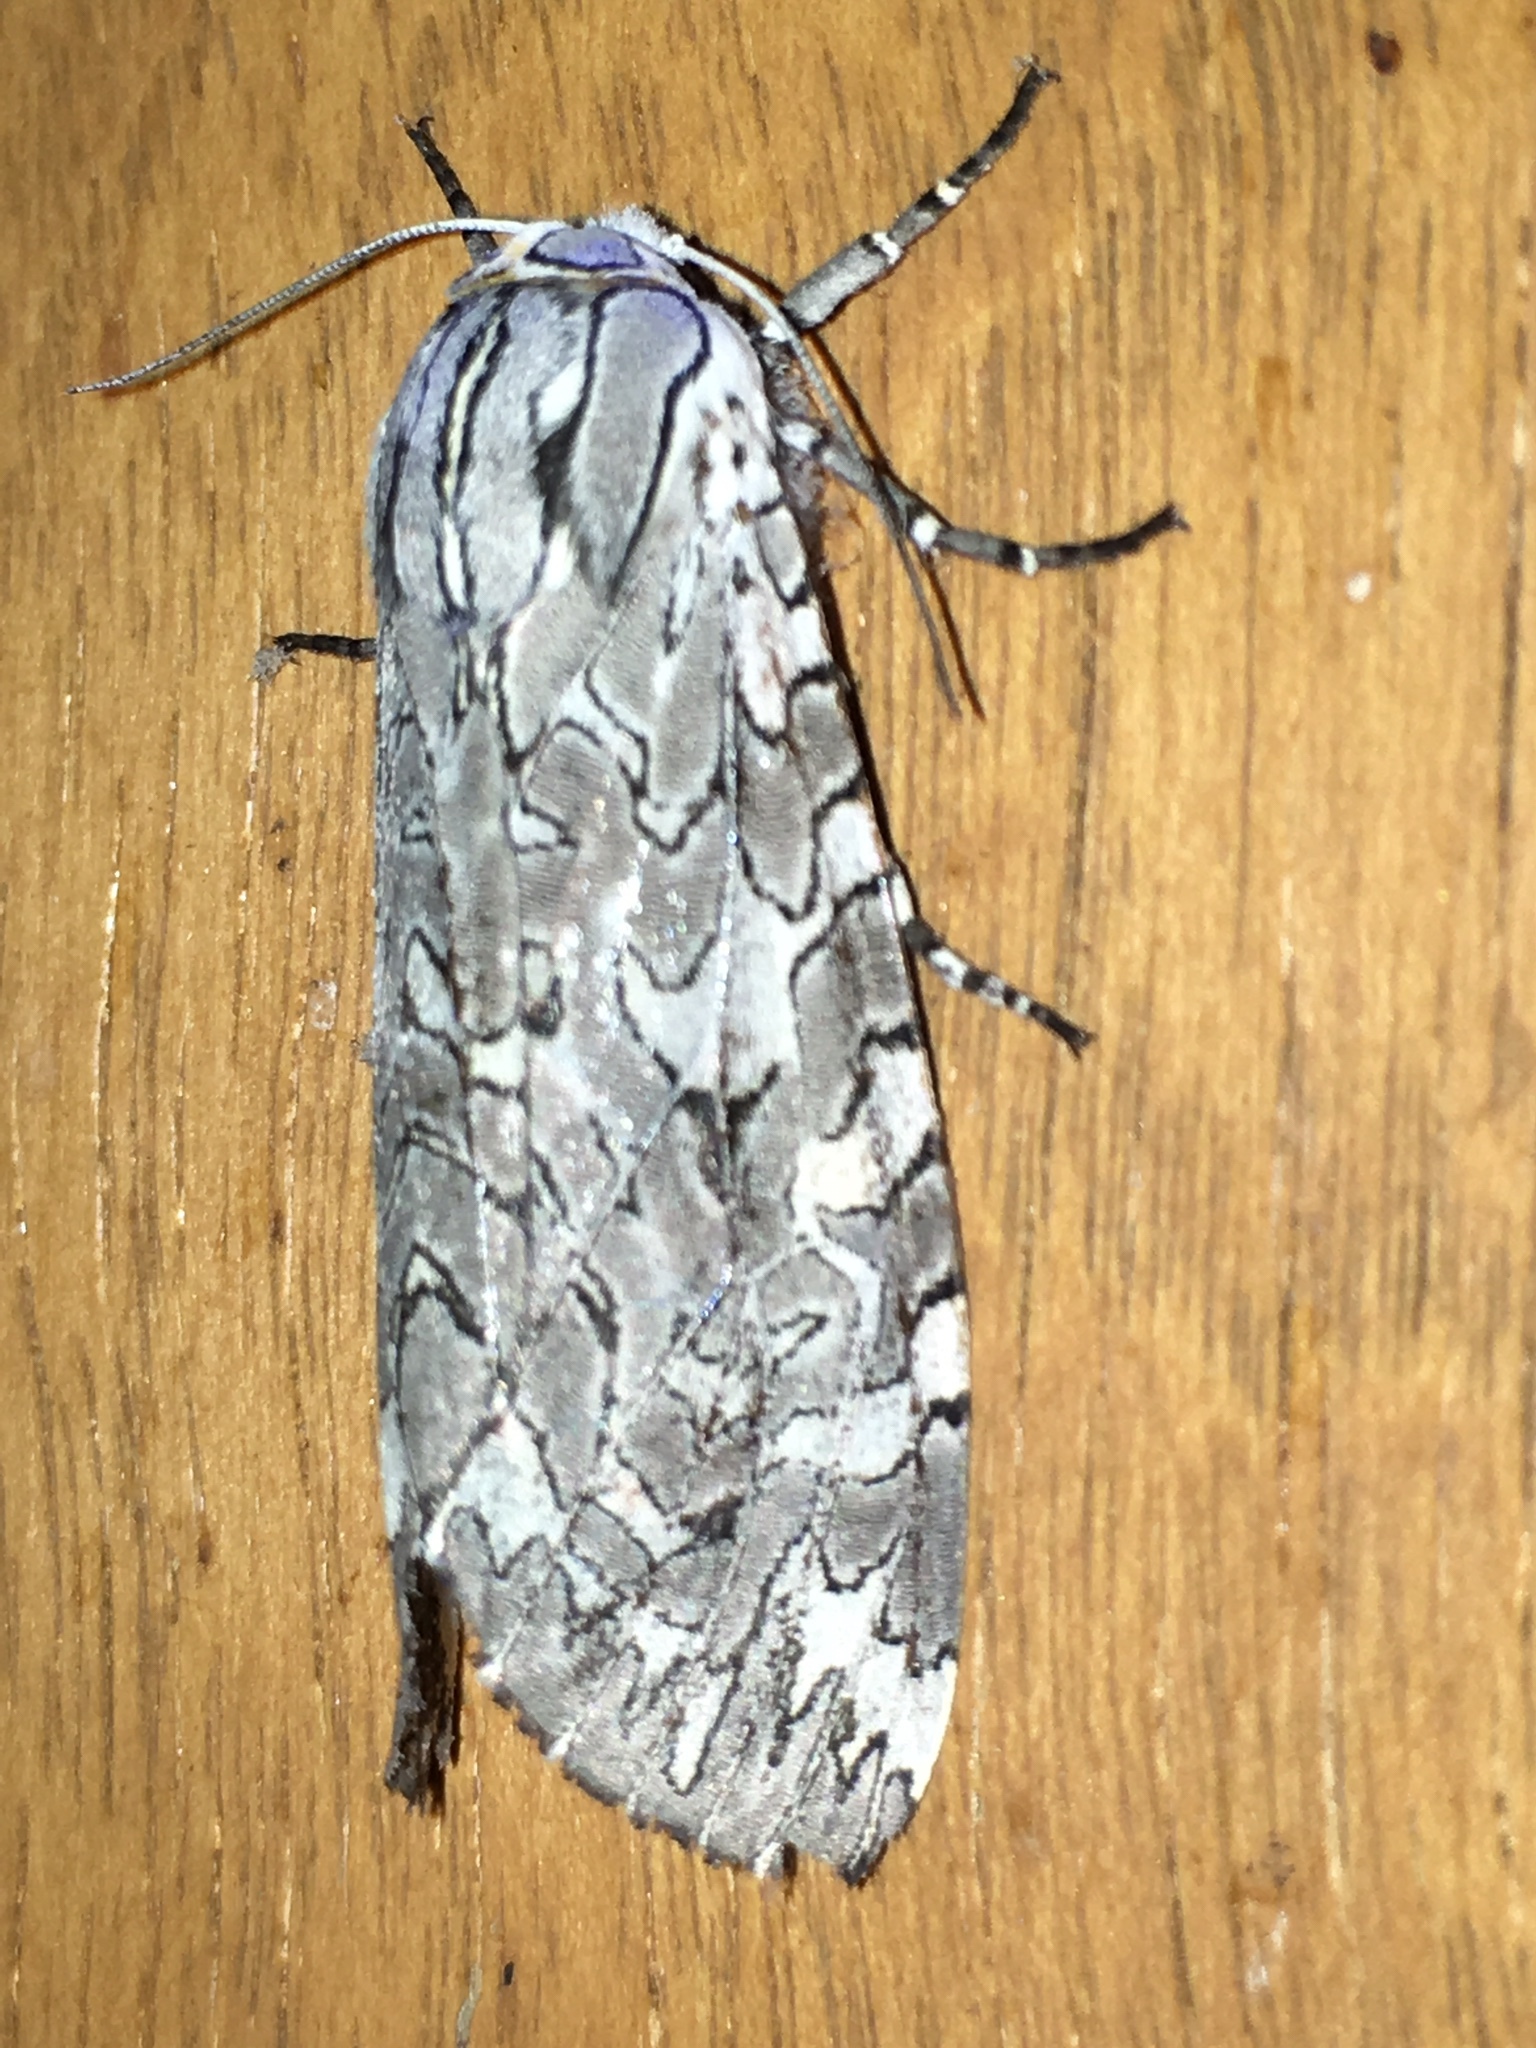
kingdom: Animalia
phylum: Arthropoda
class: Insecta
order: Lepidoptera
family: Erebidae
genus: Arachnis
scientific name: Arachnis picta
